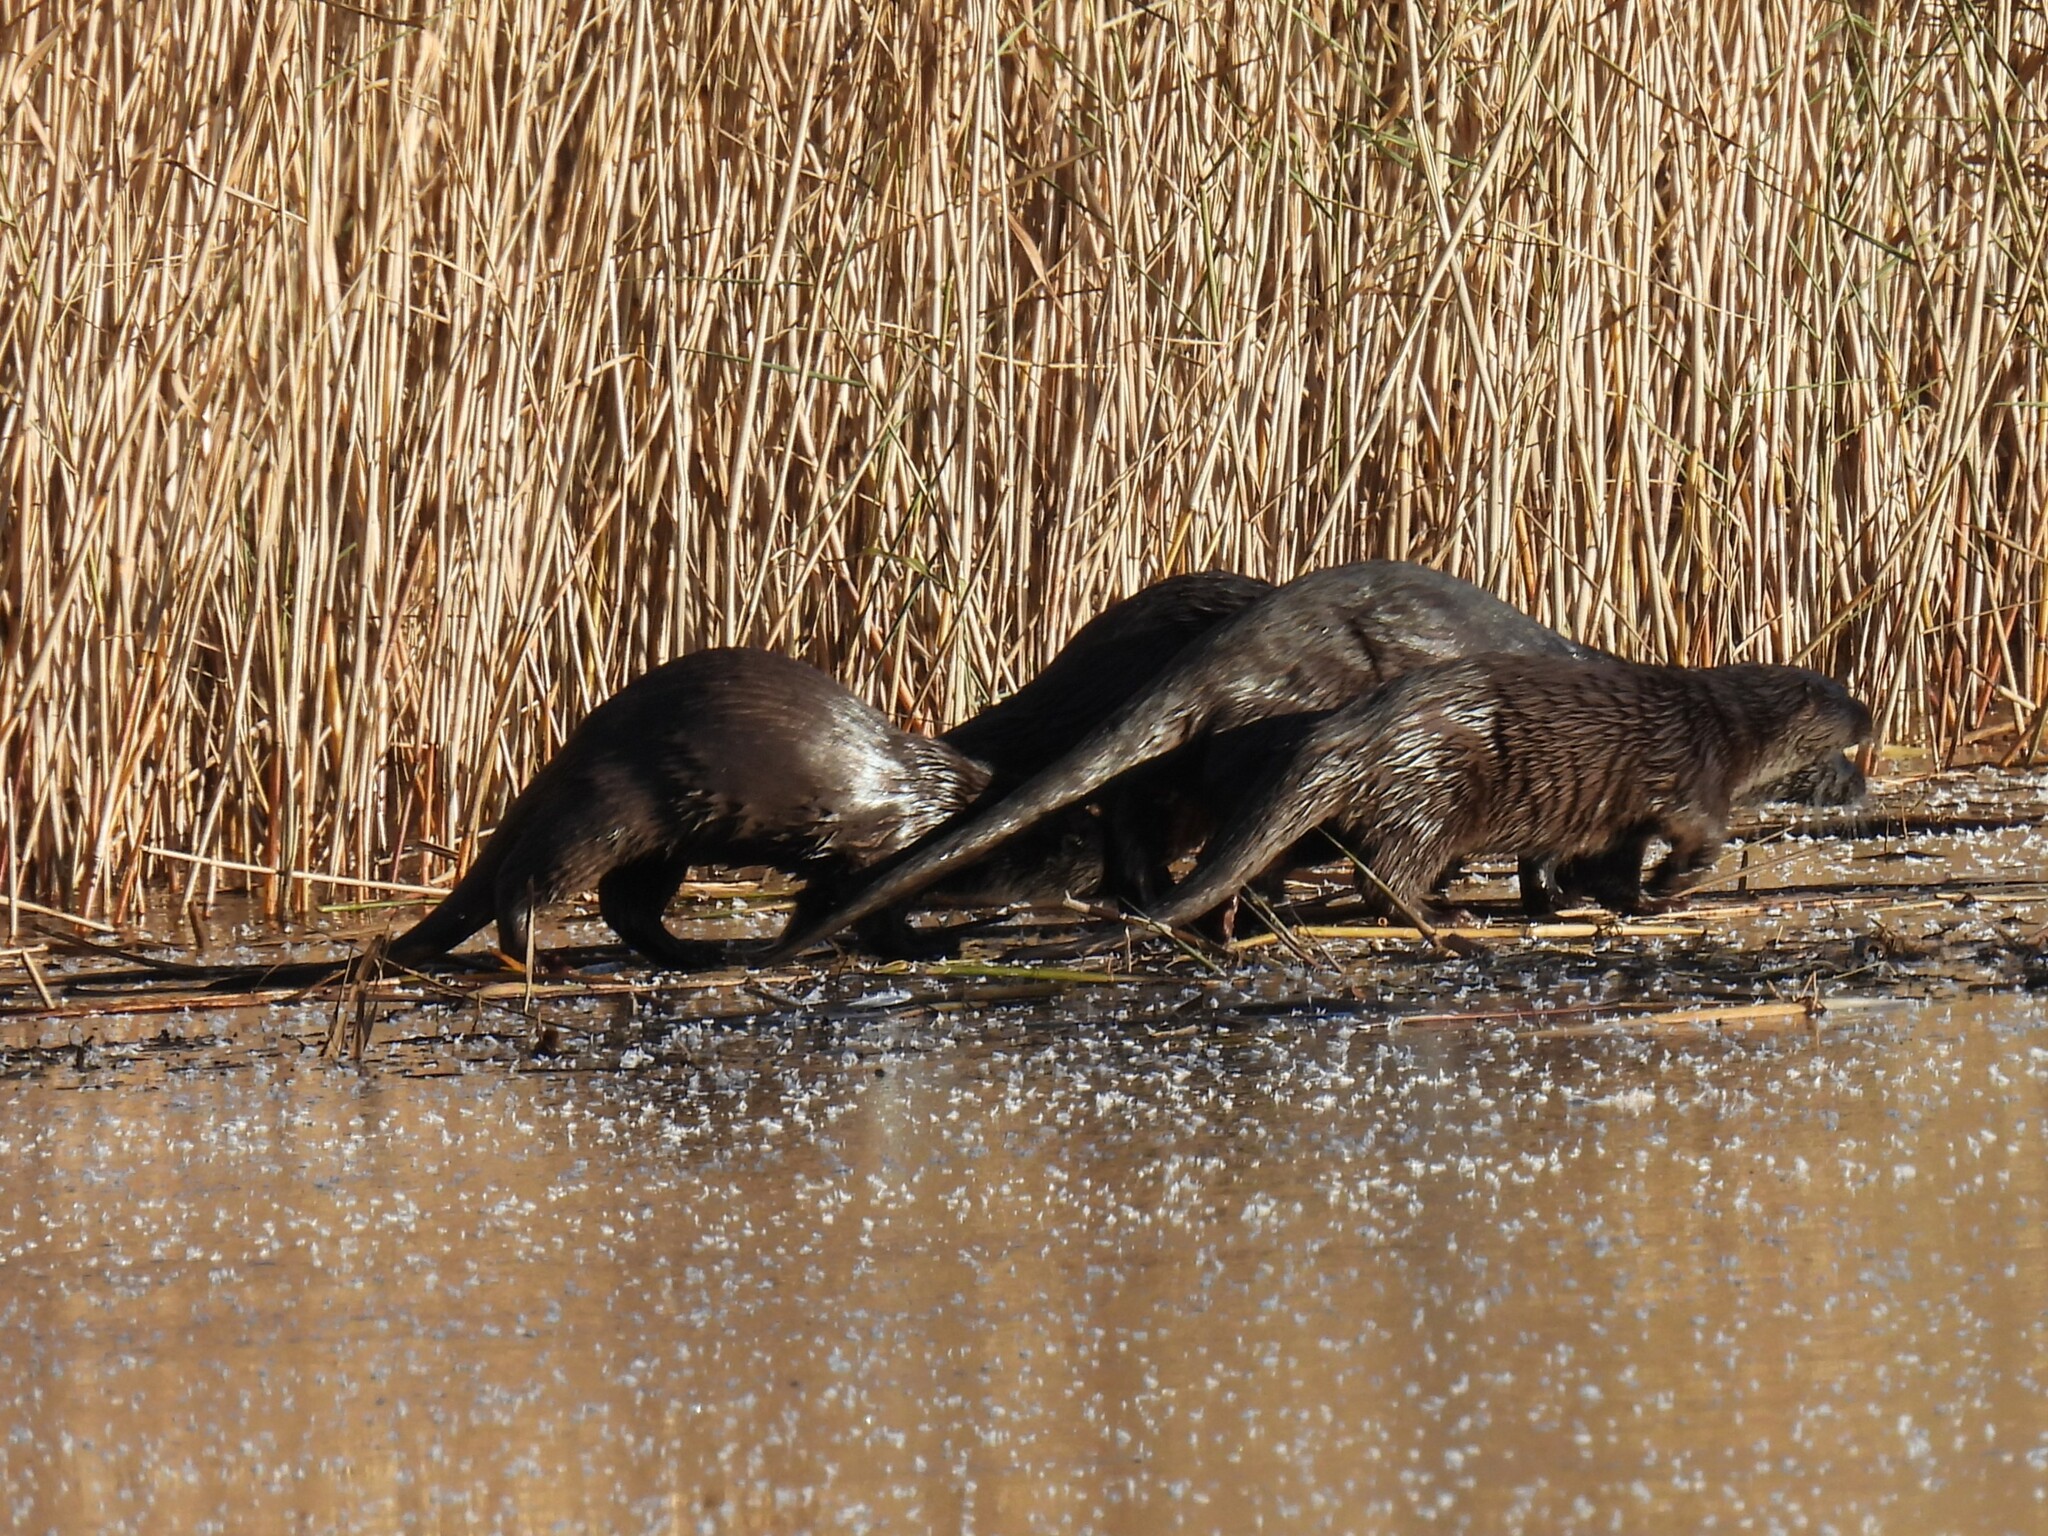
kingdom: Animalia
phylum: Chordata
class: Mammalia
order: Carnivora
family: Mustelidae
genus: Lutra
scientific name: Lutra lutra
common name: European otter
